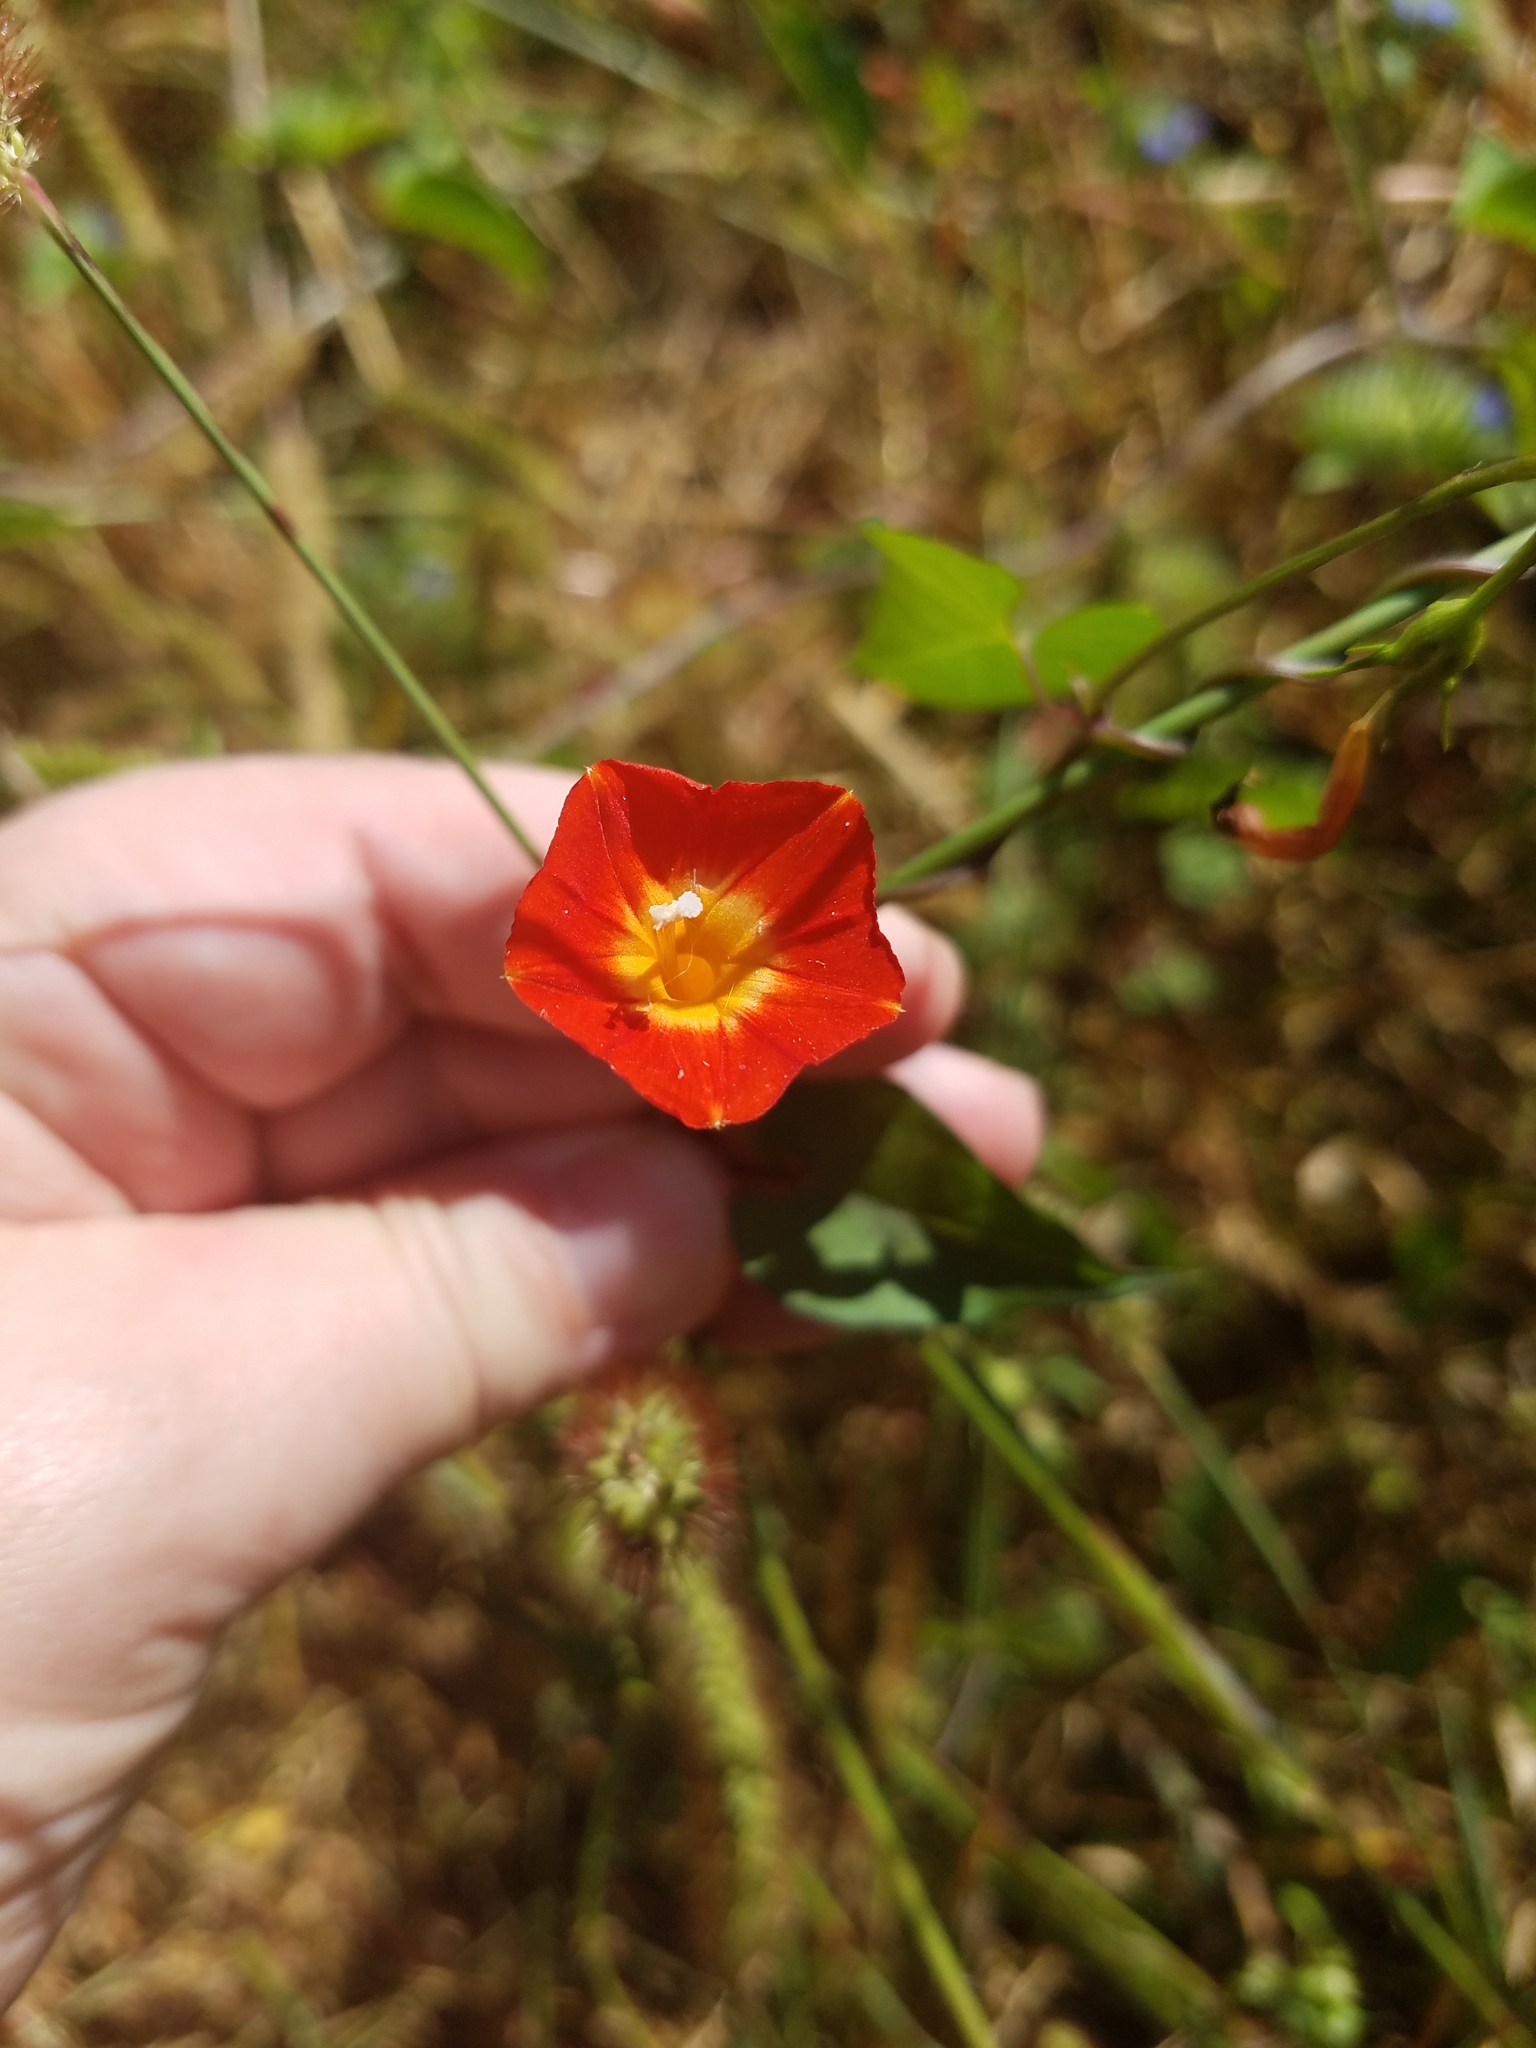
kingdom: Plantae
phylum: Tracheophyta
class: Magnoliopsida
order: Solanales
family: Convolvulaceae
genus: Ipomoea
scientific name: Ipomoea coccinea
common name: Red morning-glory
